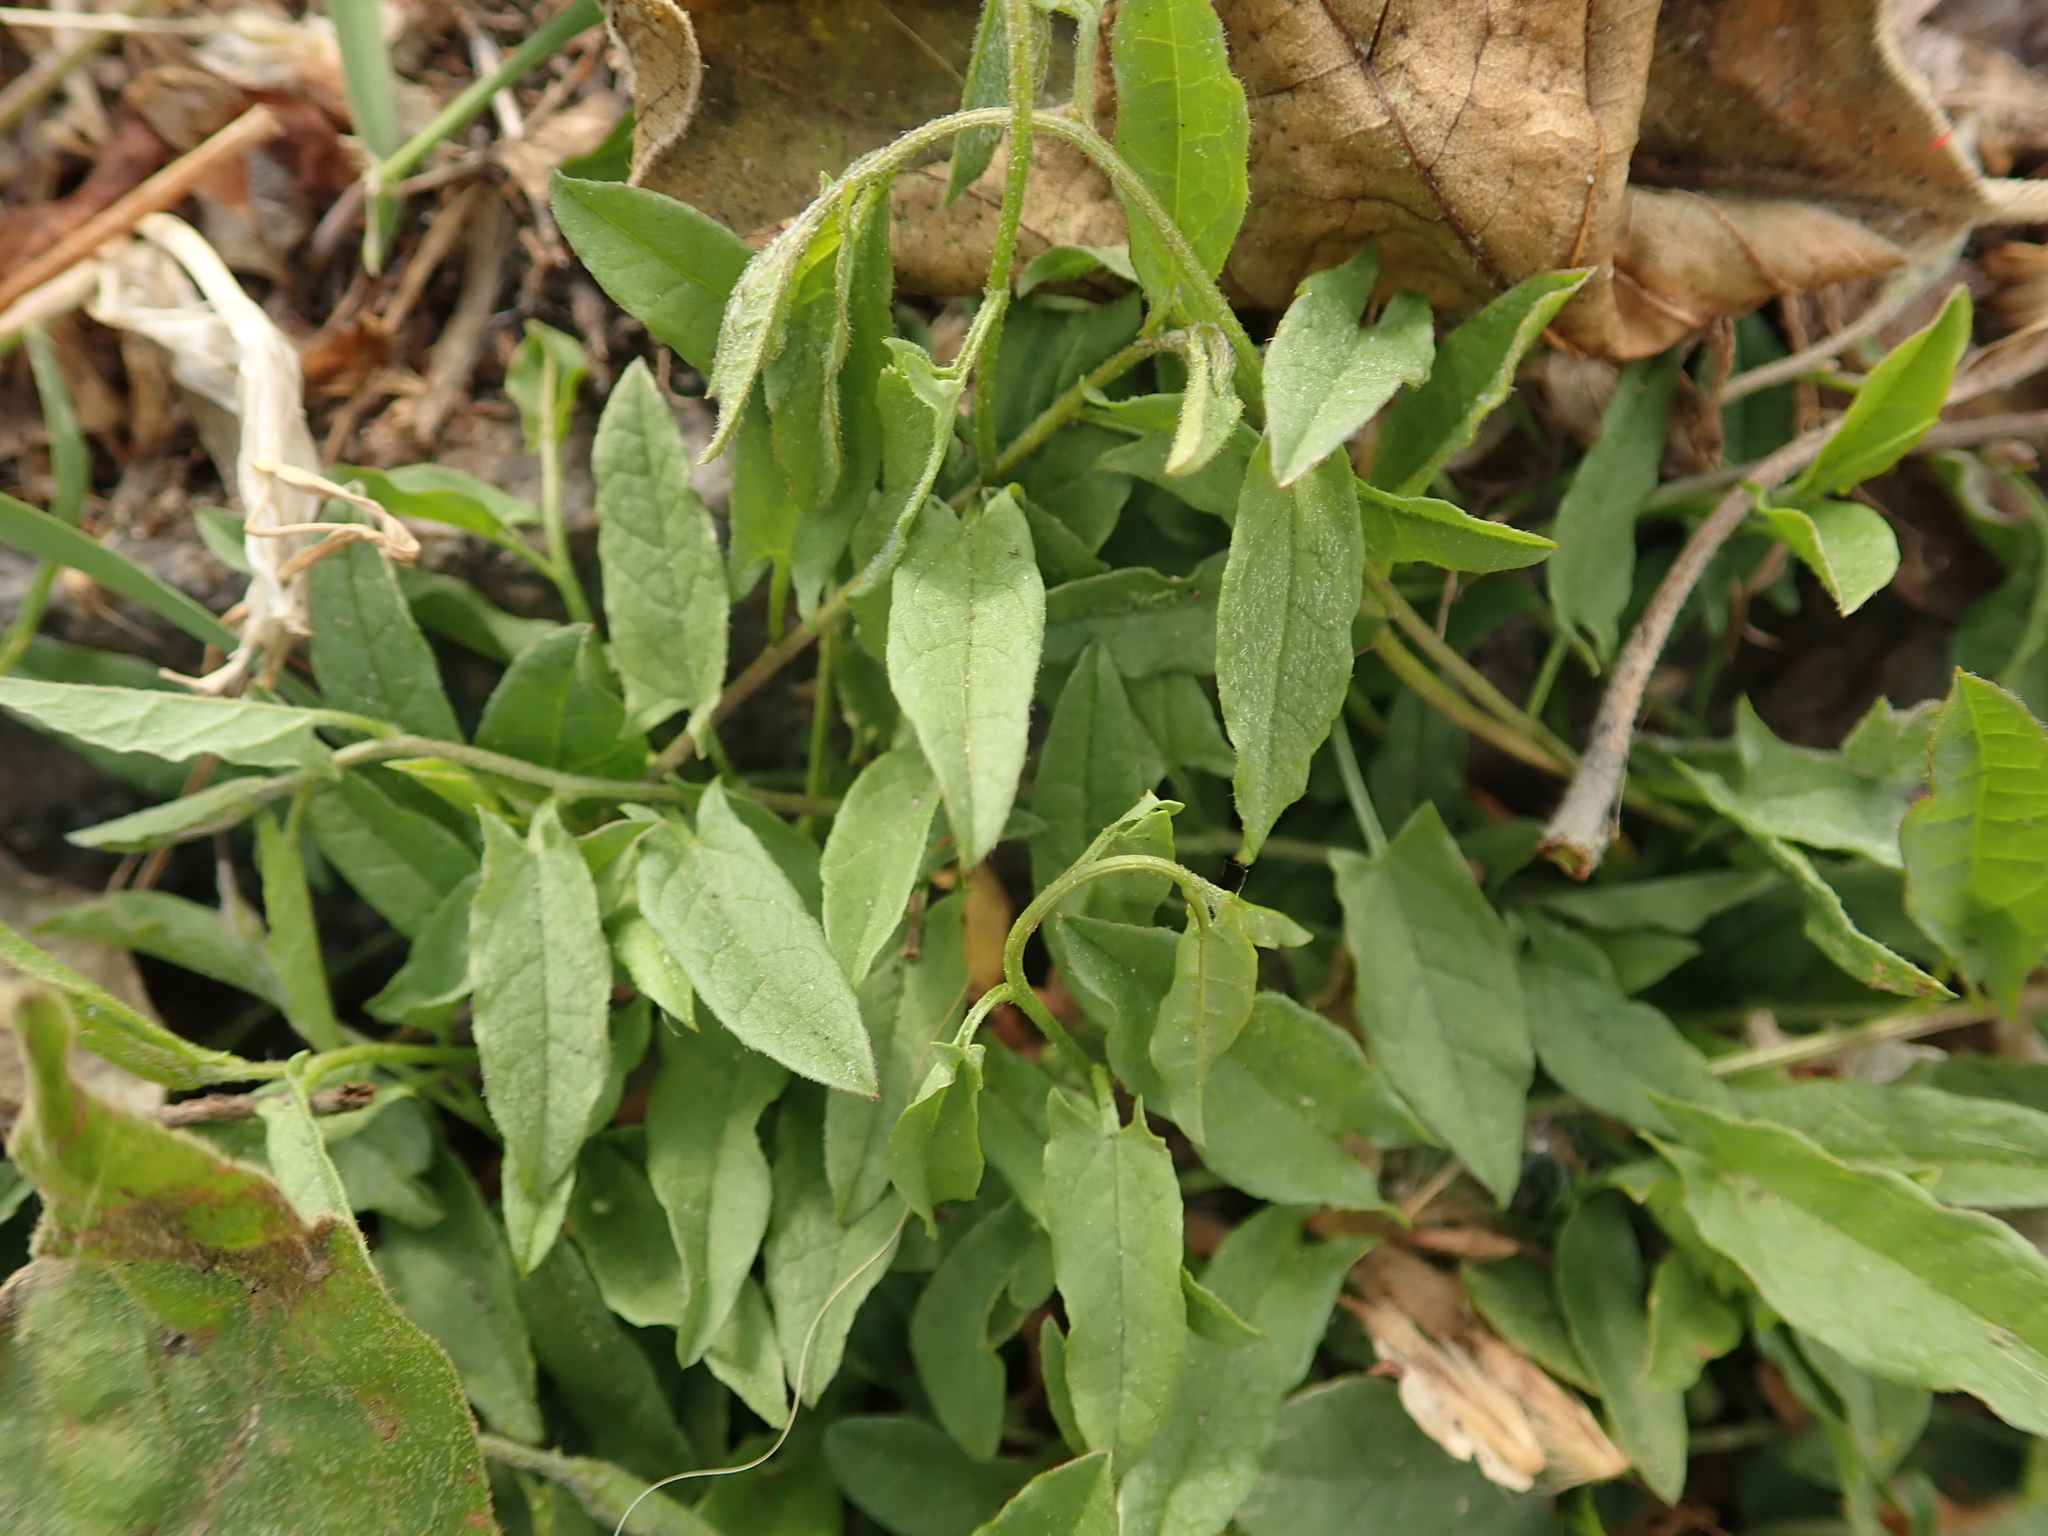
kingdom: Plantae
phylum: Tracheophyta
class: Magnoliopsida
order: Solanales
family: Convolvulaceae
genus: Convolvulus
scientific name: Convolvulus arvensis
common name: Field bindweed
